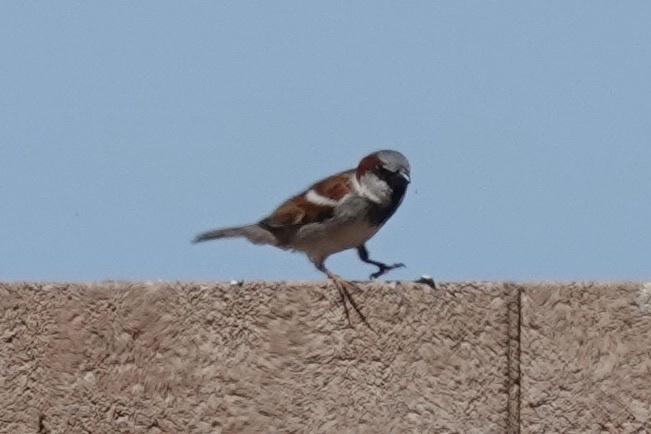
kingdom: Animalia
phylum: Chordata
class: Aves
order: Passeriformes
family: Passeridae
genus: Passer
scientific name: Passer domesticus
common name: House sparrow
